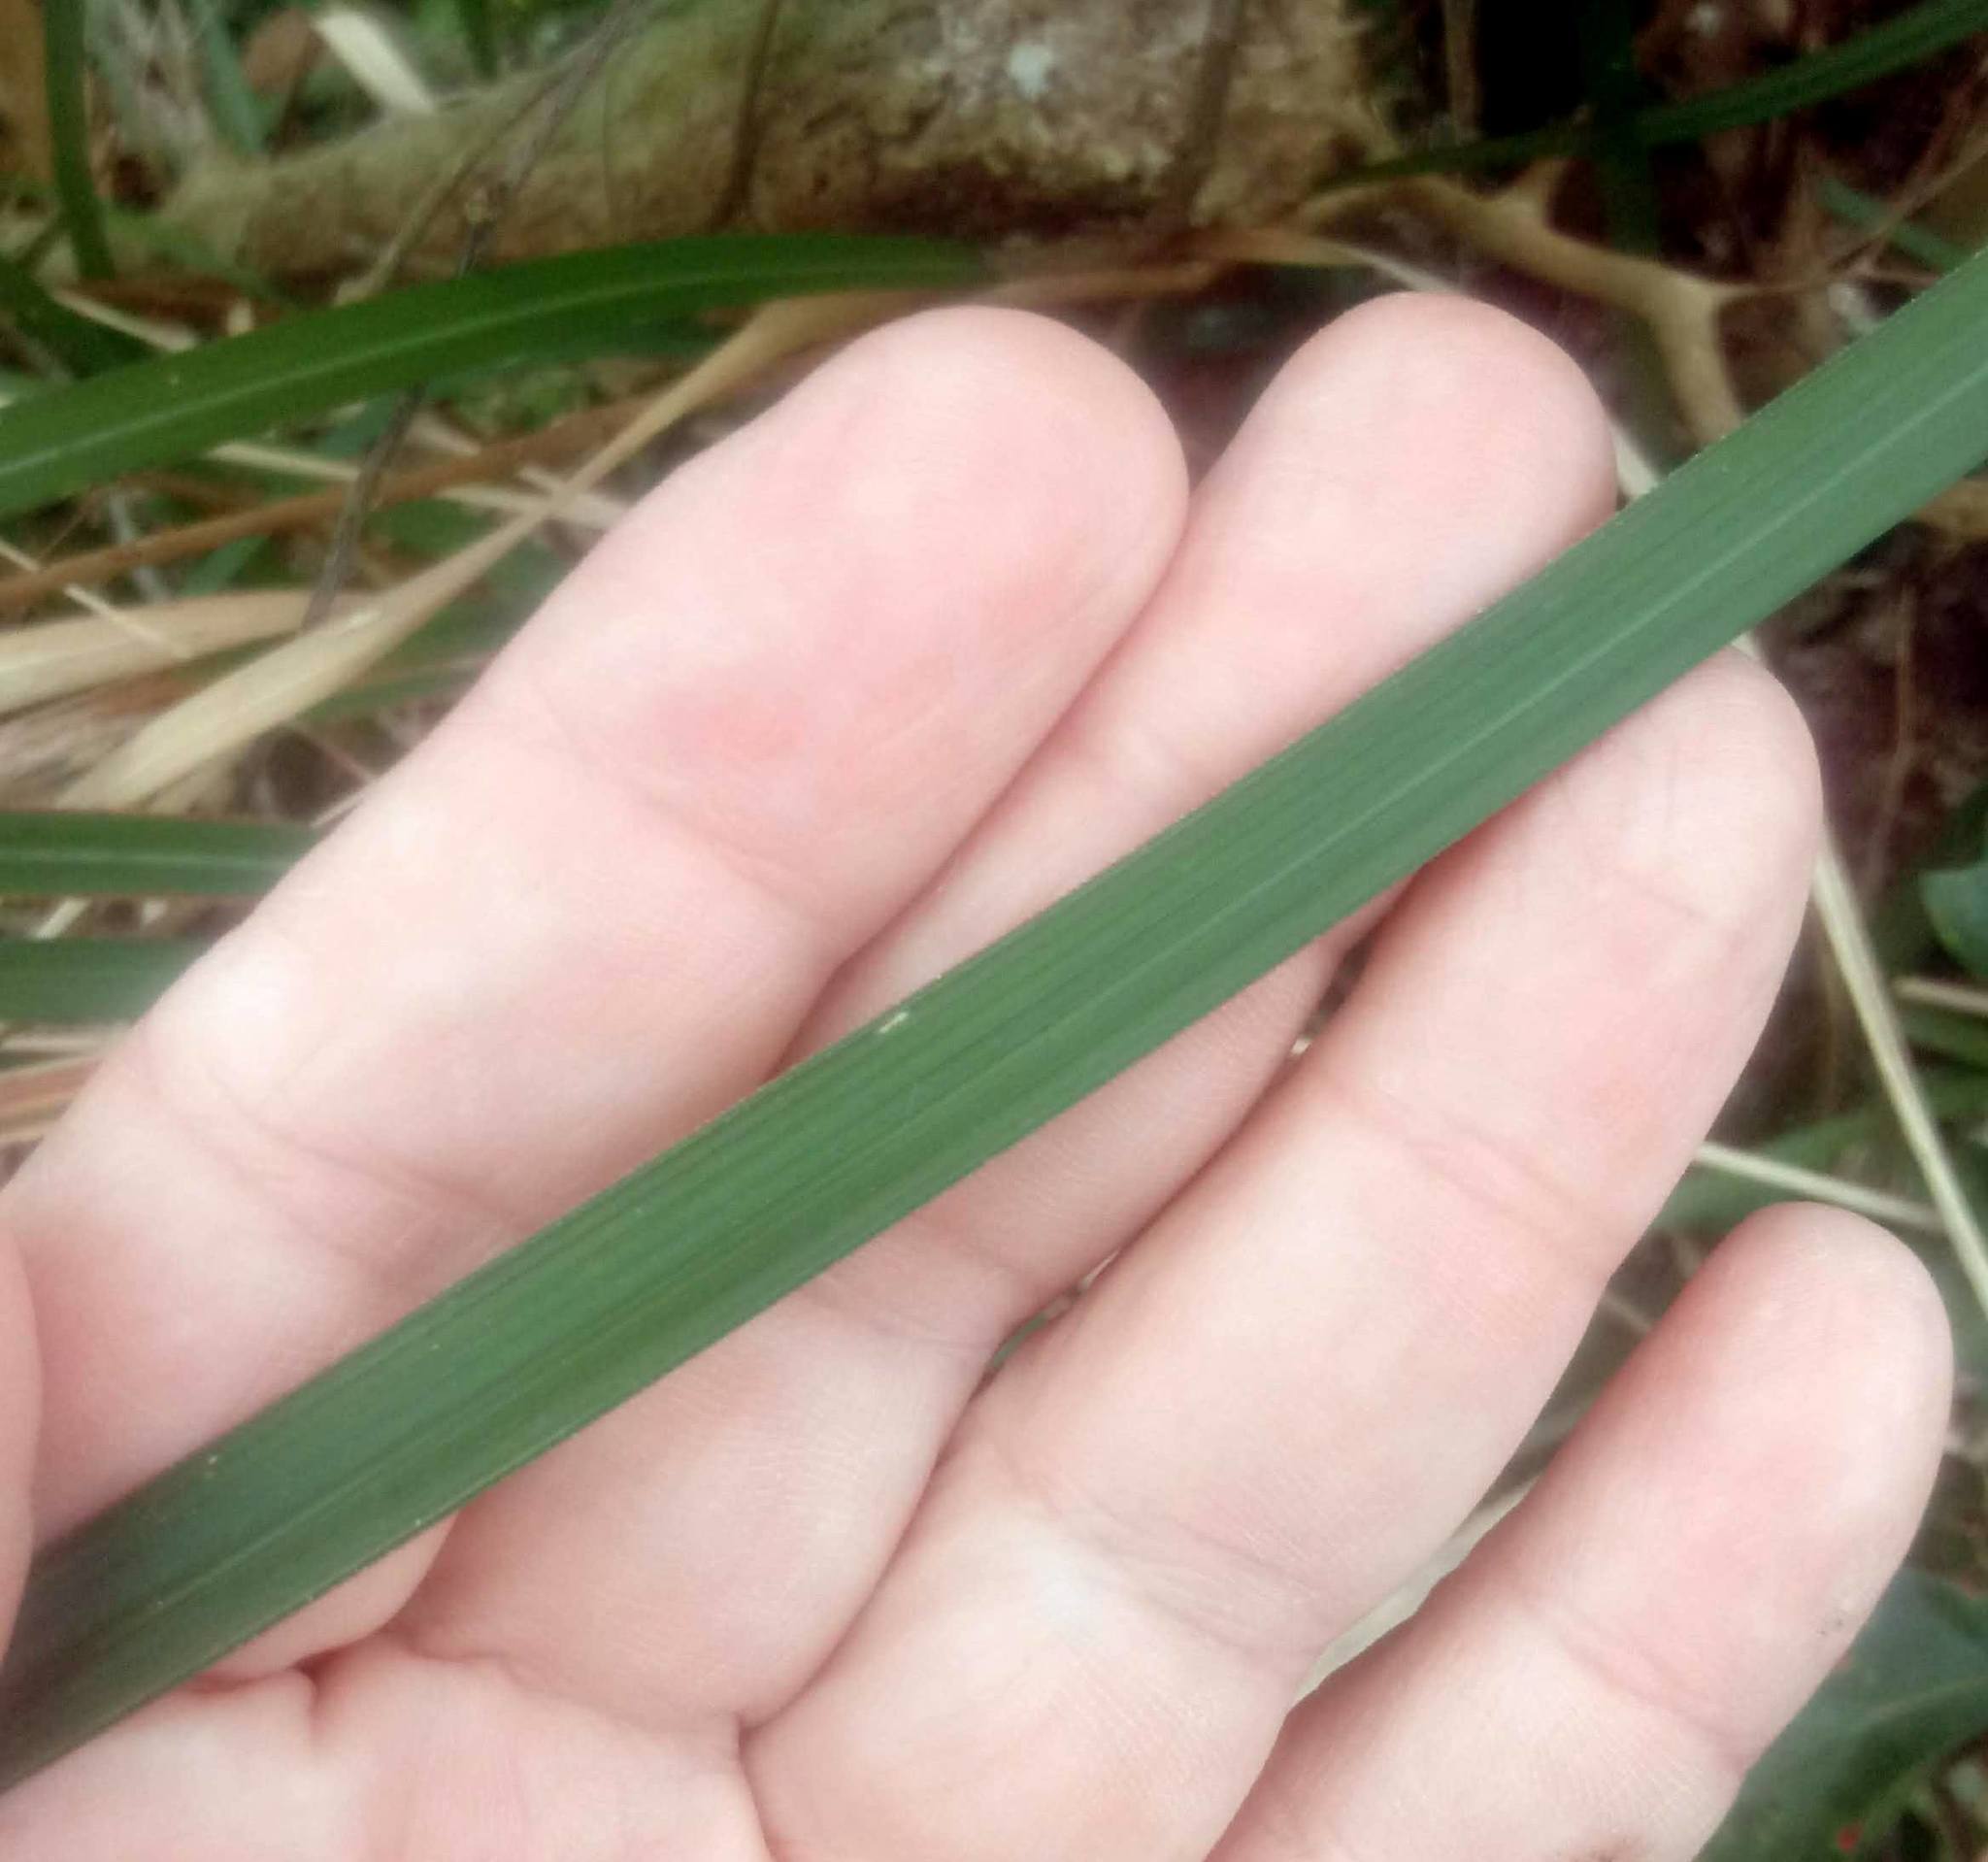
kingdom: Plantae
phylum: Tracheophyta
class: Liliopsida
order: Poales
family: Poaceae
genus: Imperata
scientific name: Imperata cylindrica
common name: Cogongrass
